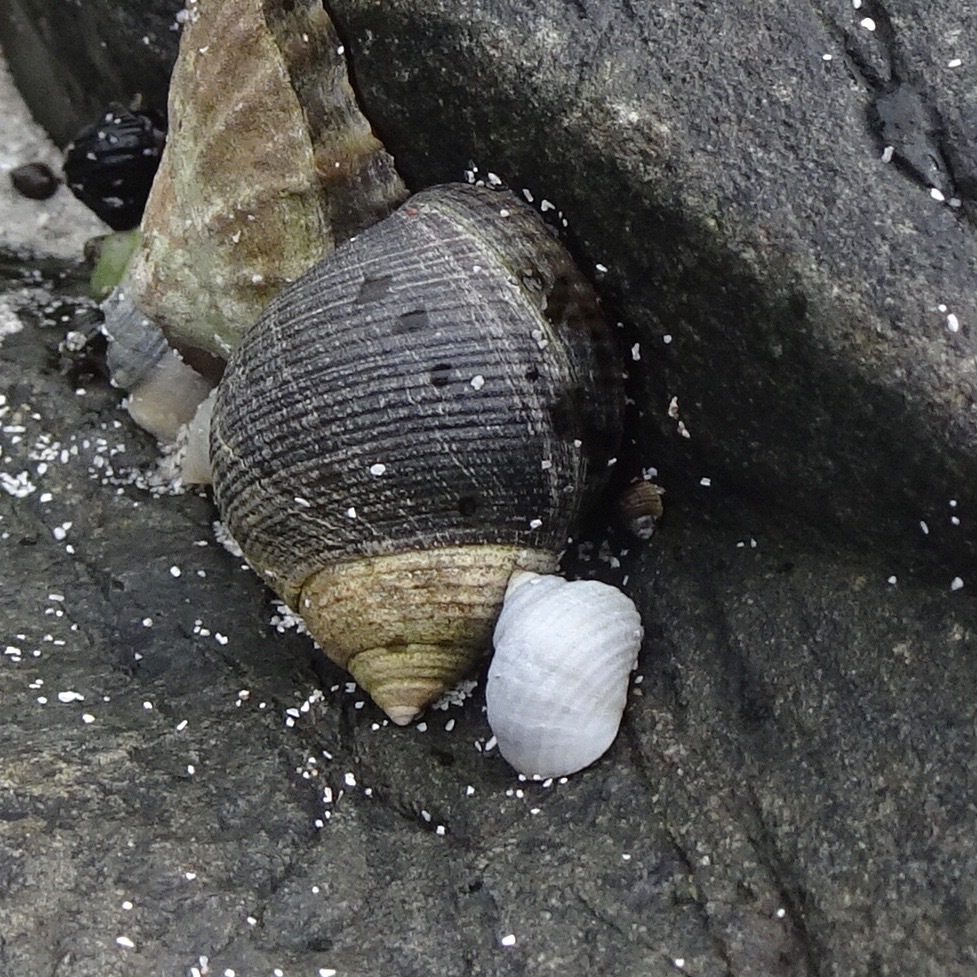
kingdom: Animalia
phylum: Mollusca
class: Gastropoda
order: Littorinimorpha
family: Littorinidae
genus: Littorina
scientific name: Littorina littorea
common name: Common periwinkle
